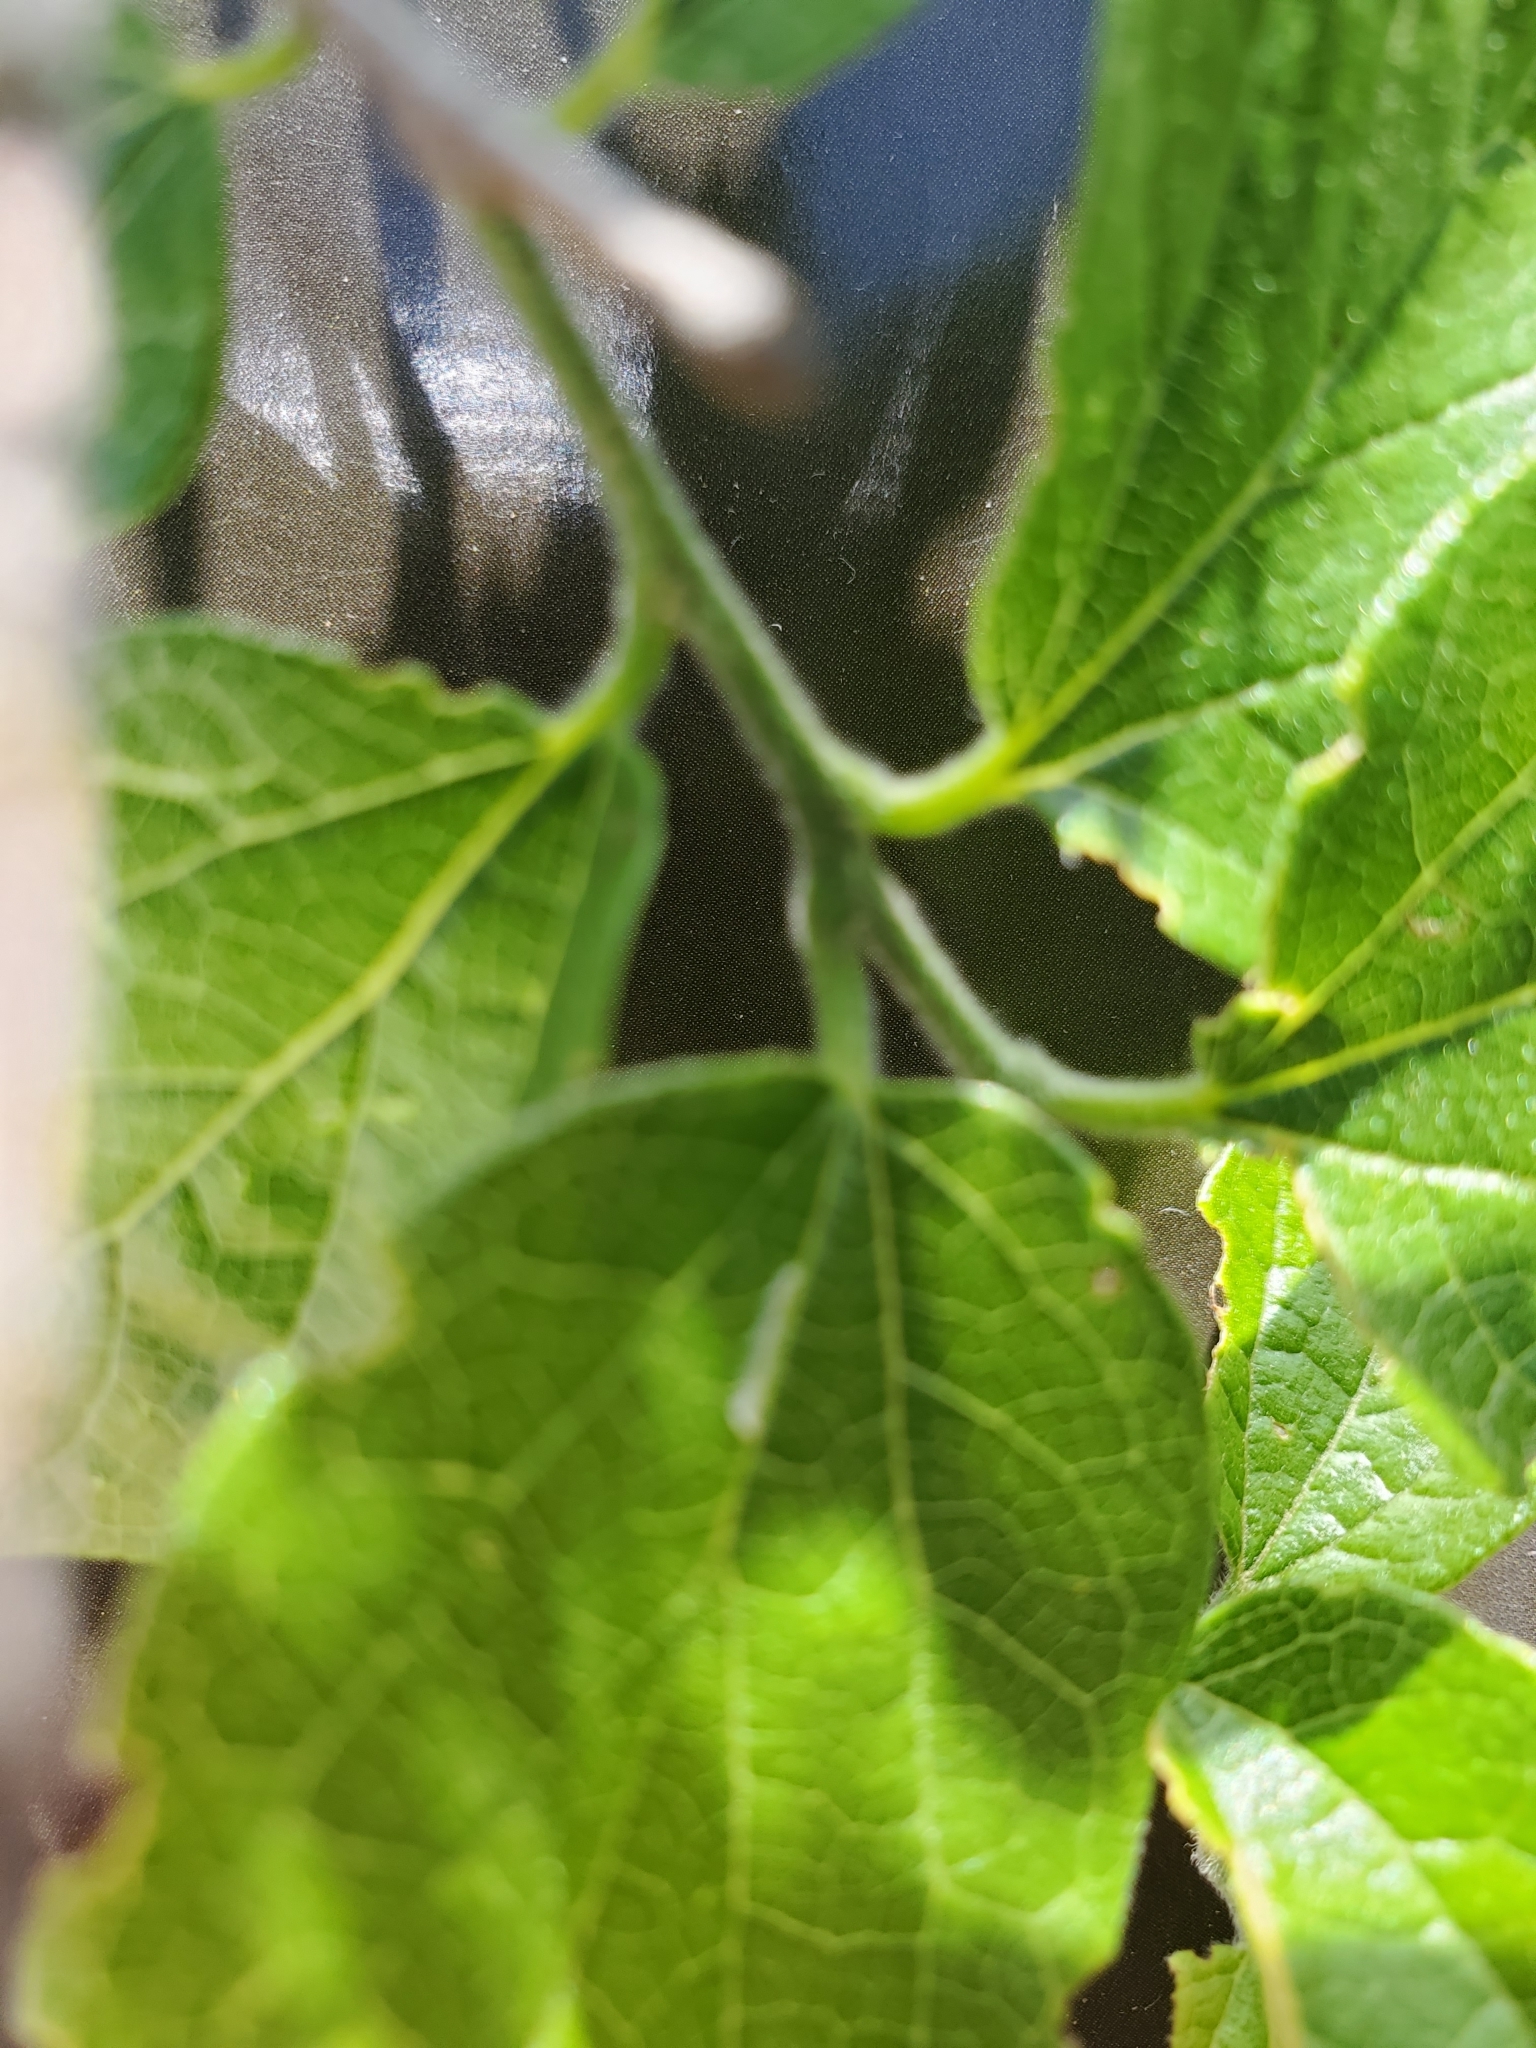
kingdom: Plantae
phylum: Tracheophyta
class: Magnoliopsida
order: Rosales
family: Cannabaceae
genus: Celtis
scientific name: Celtis laevigata
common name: Sugarberry
